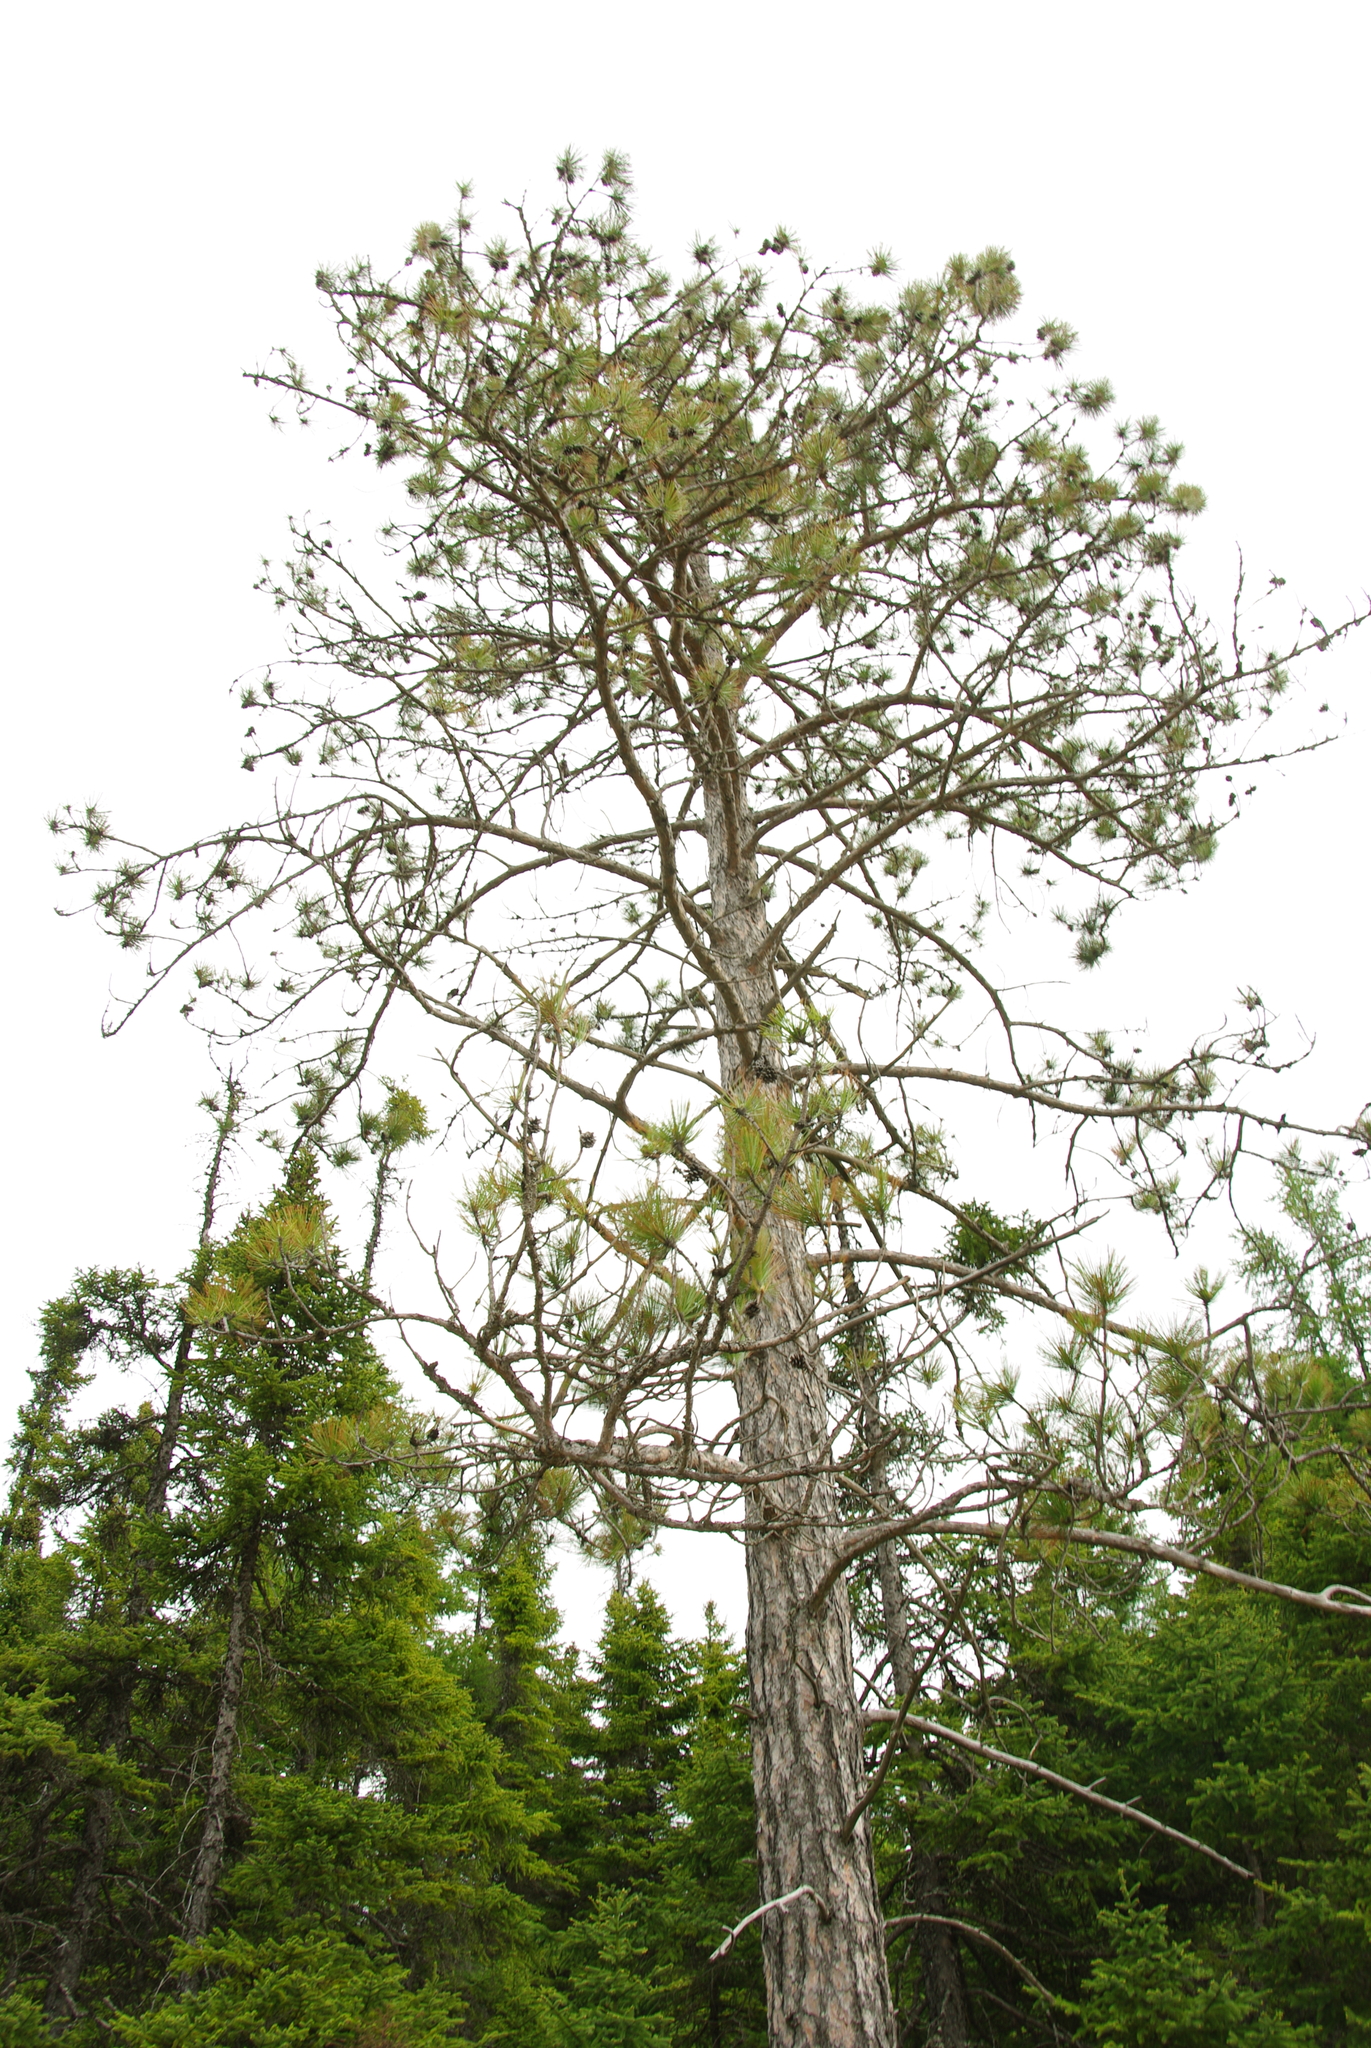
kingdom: Plantae
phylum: Tracheophyta
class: Pinopsida
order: Pinales
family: Pinaceae
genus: Pinus
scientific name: Pinus resinosa
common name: Norway pine
